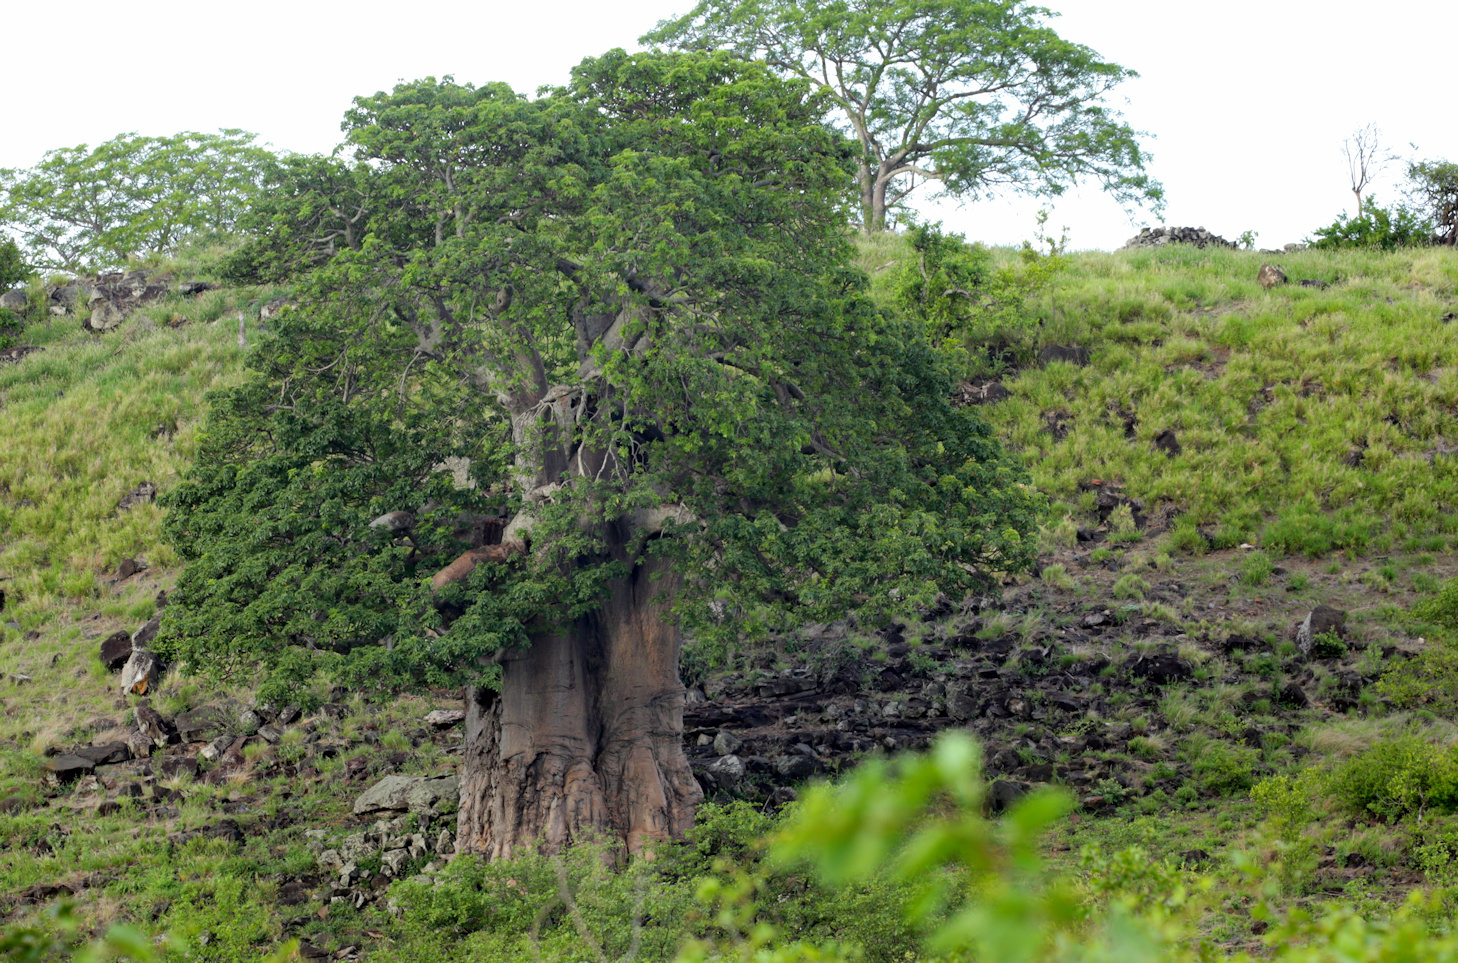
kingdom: Plantae
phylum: Tracheophyta
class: Magnoliopsida
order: Malvales
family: Malvaceae
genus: Adansonia
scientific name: Adansonia digitata
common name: Dead-rat-tree
